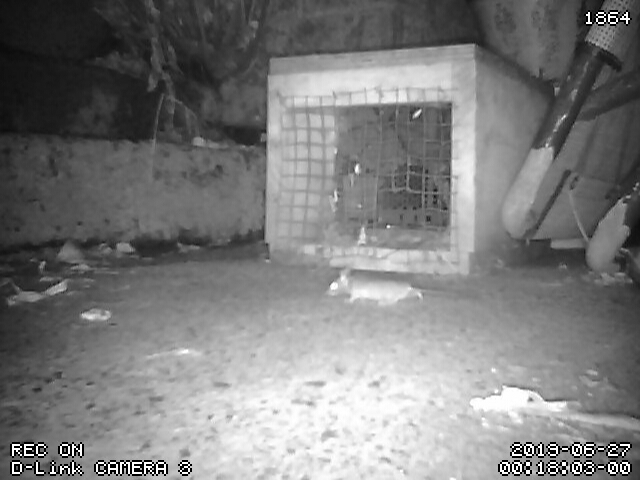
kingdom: Animalia
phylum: Chordata
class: Mammalia
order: Rodentia
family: Muridae
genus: Mus
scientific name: Mus musculus
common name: House mouse
